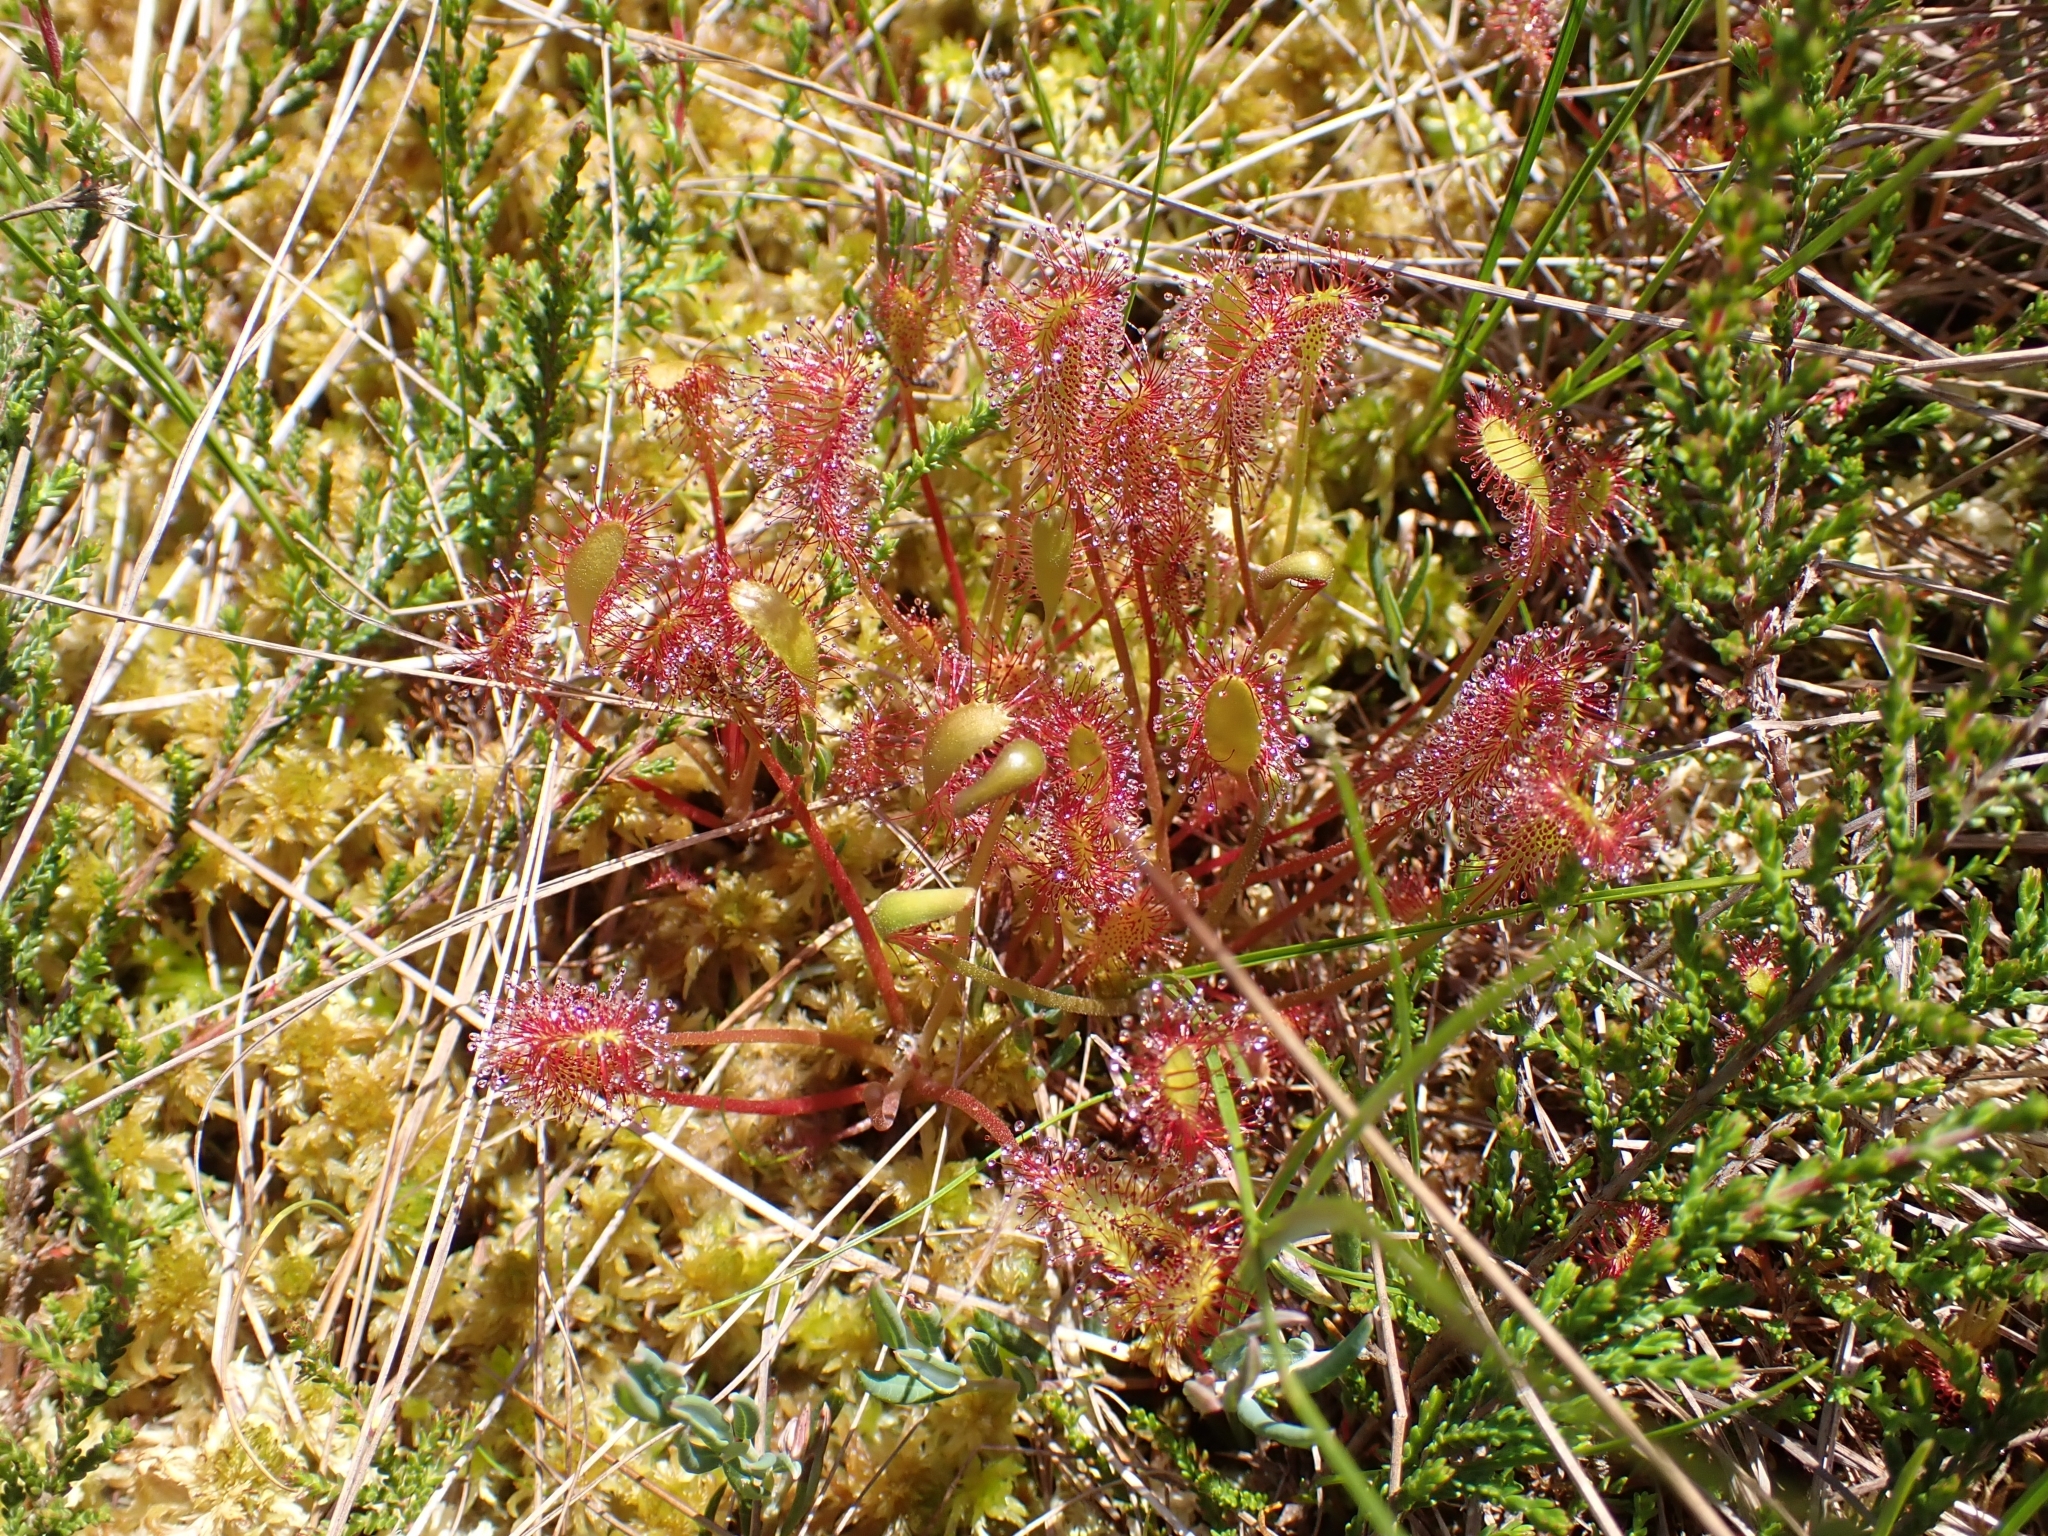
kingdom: Plantae
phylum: Tracheophyta
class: Magnoliopsida
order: Caryophyllales
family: Droseraceae
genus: Drosera
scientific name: Drosera anglica
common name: Great sundew
